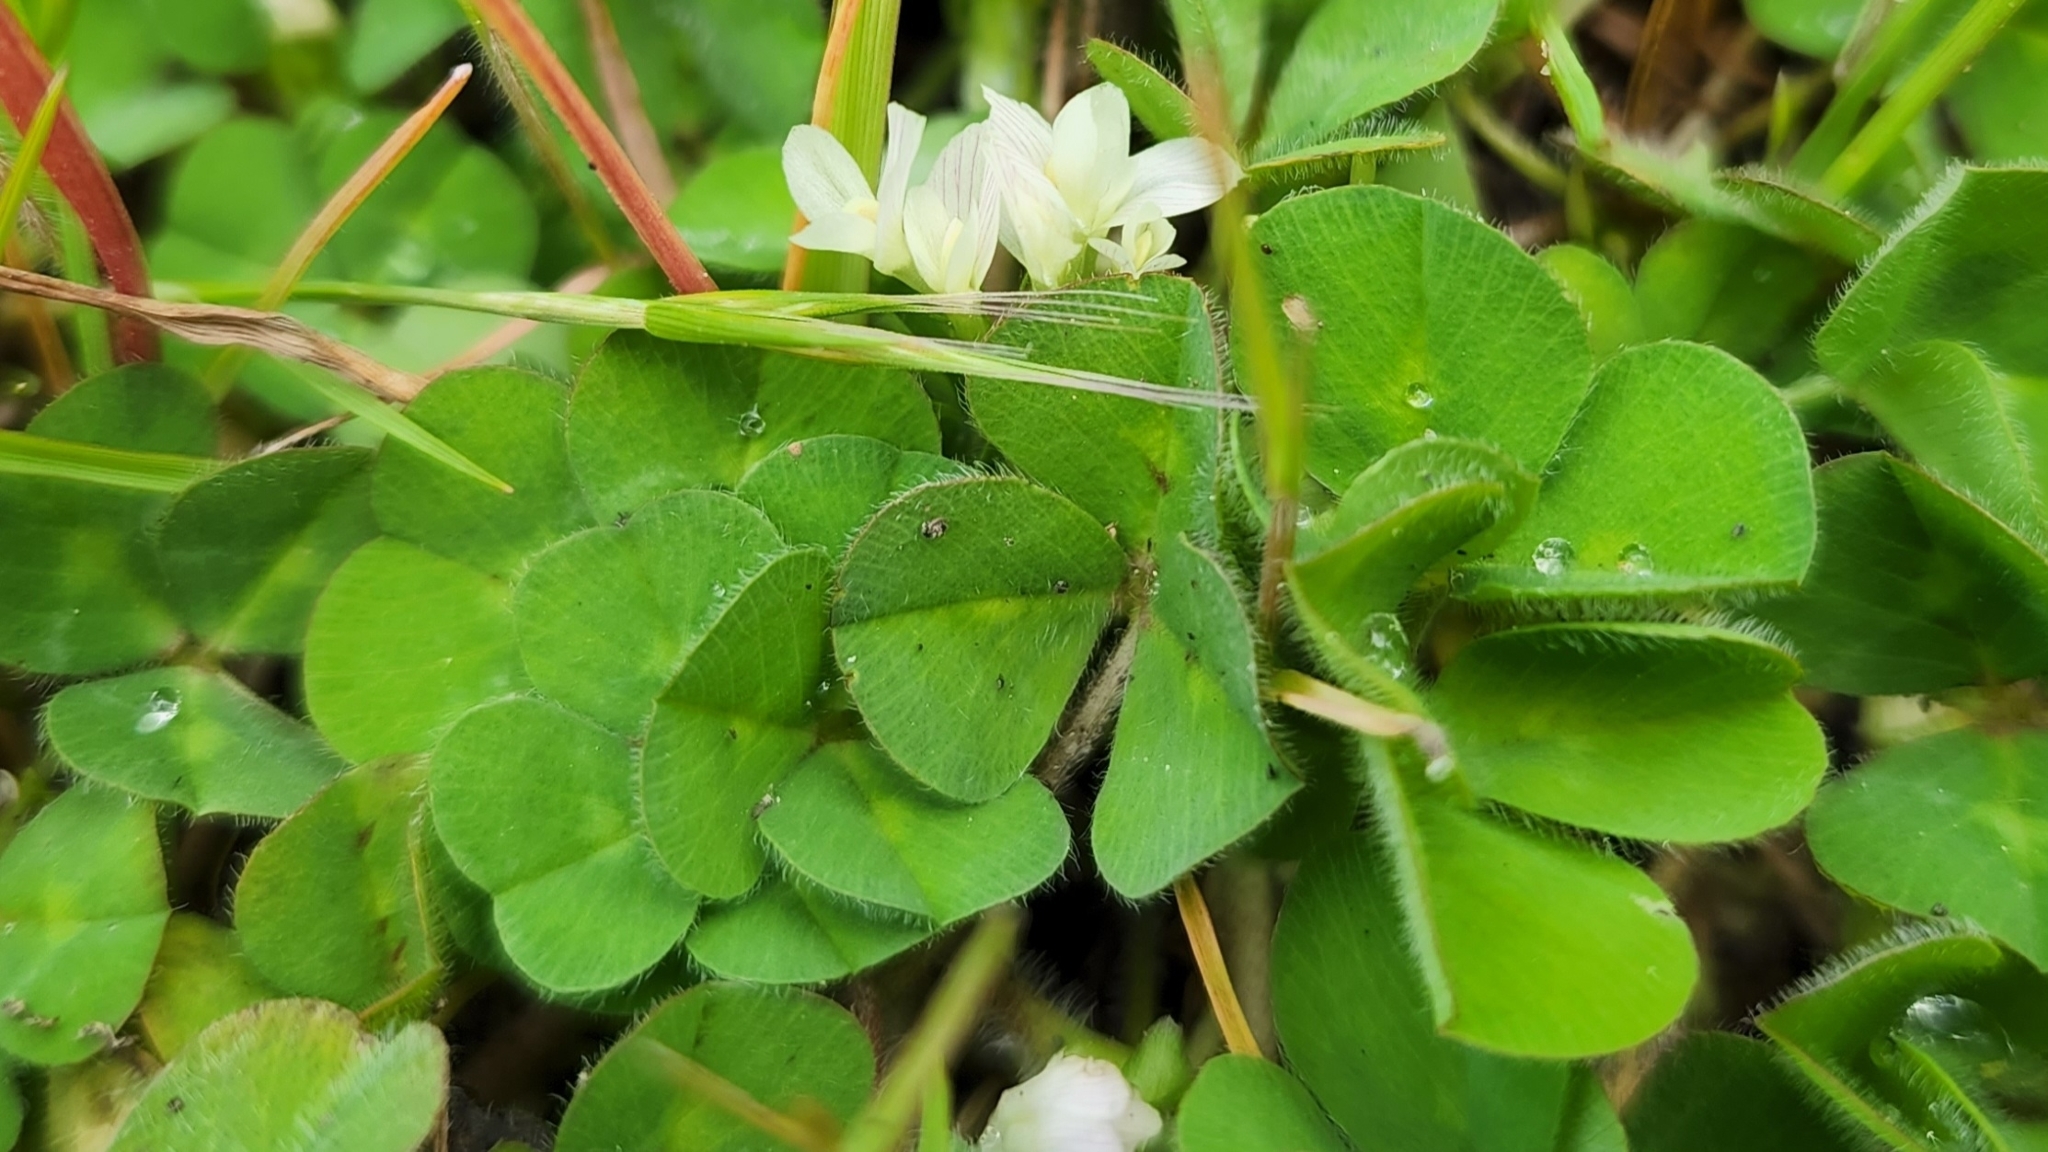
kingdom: Plantae
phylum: Tracheophyta
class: Magnoliopsida
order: Fabales
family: Fabaceae
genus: Trifolium
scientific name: Trifolium subterraneum
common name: Subterranean clover
